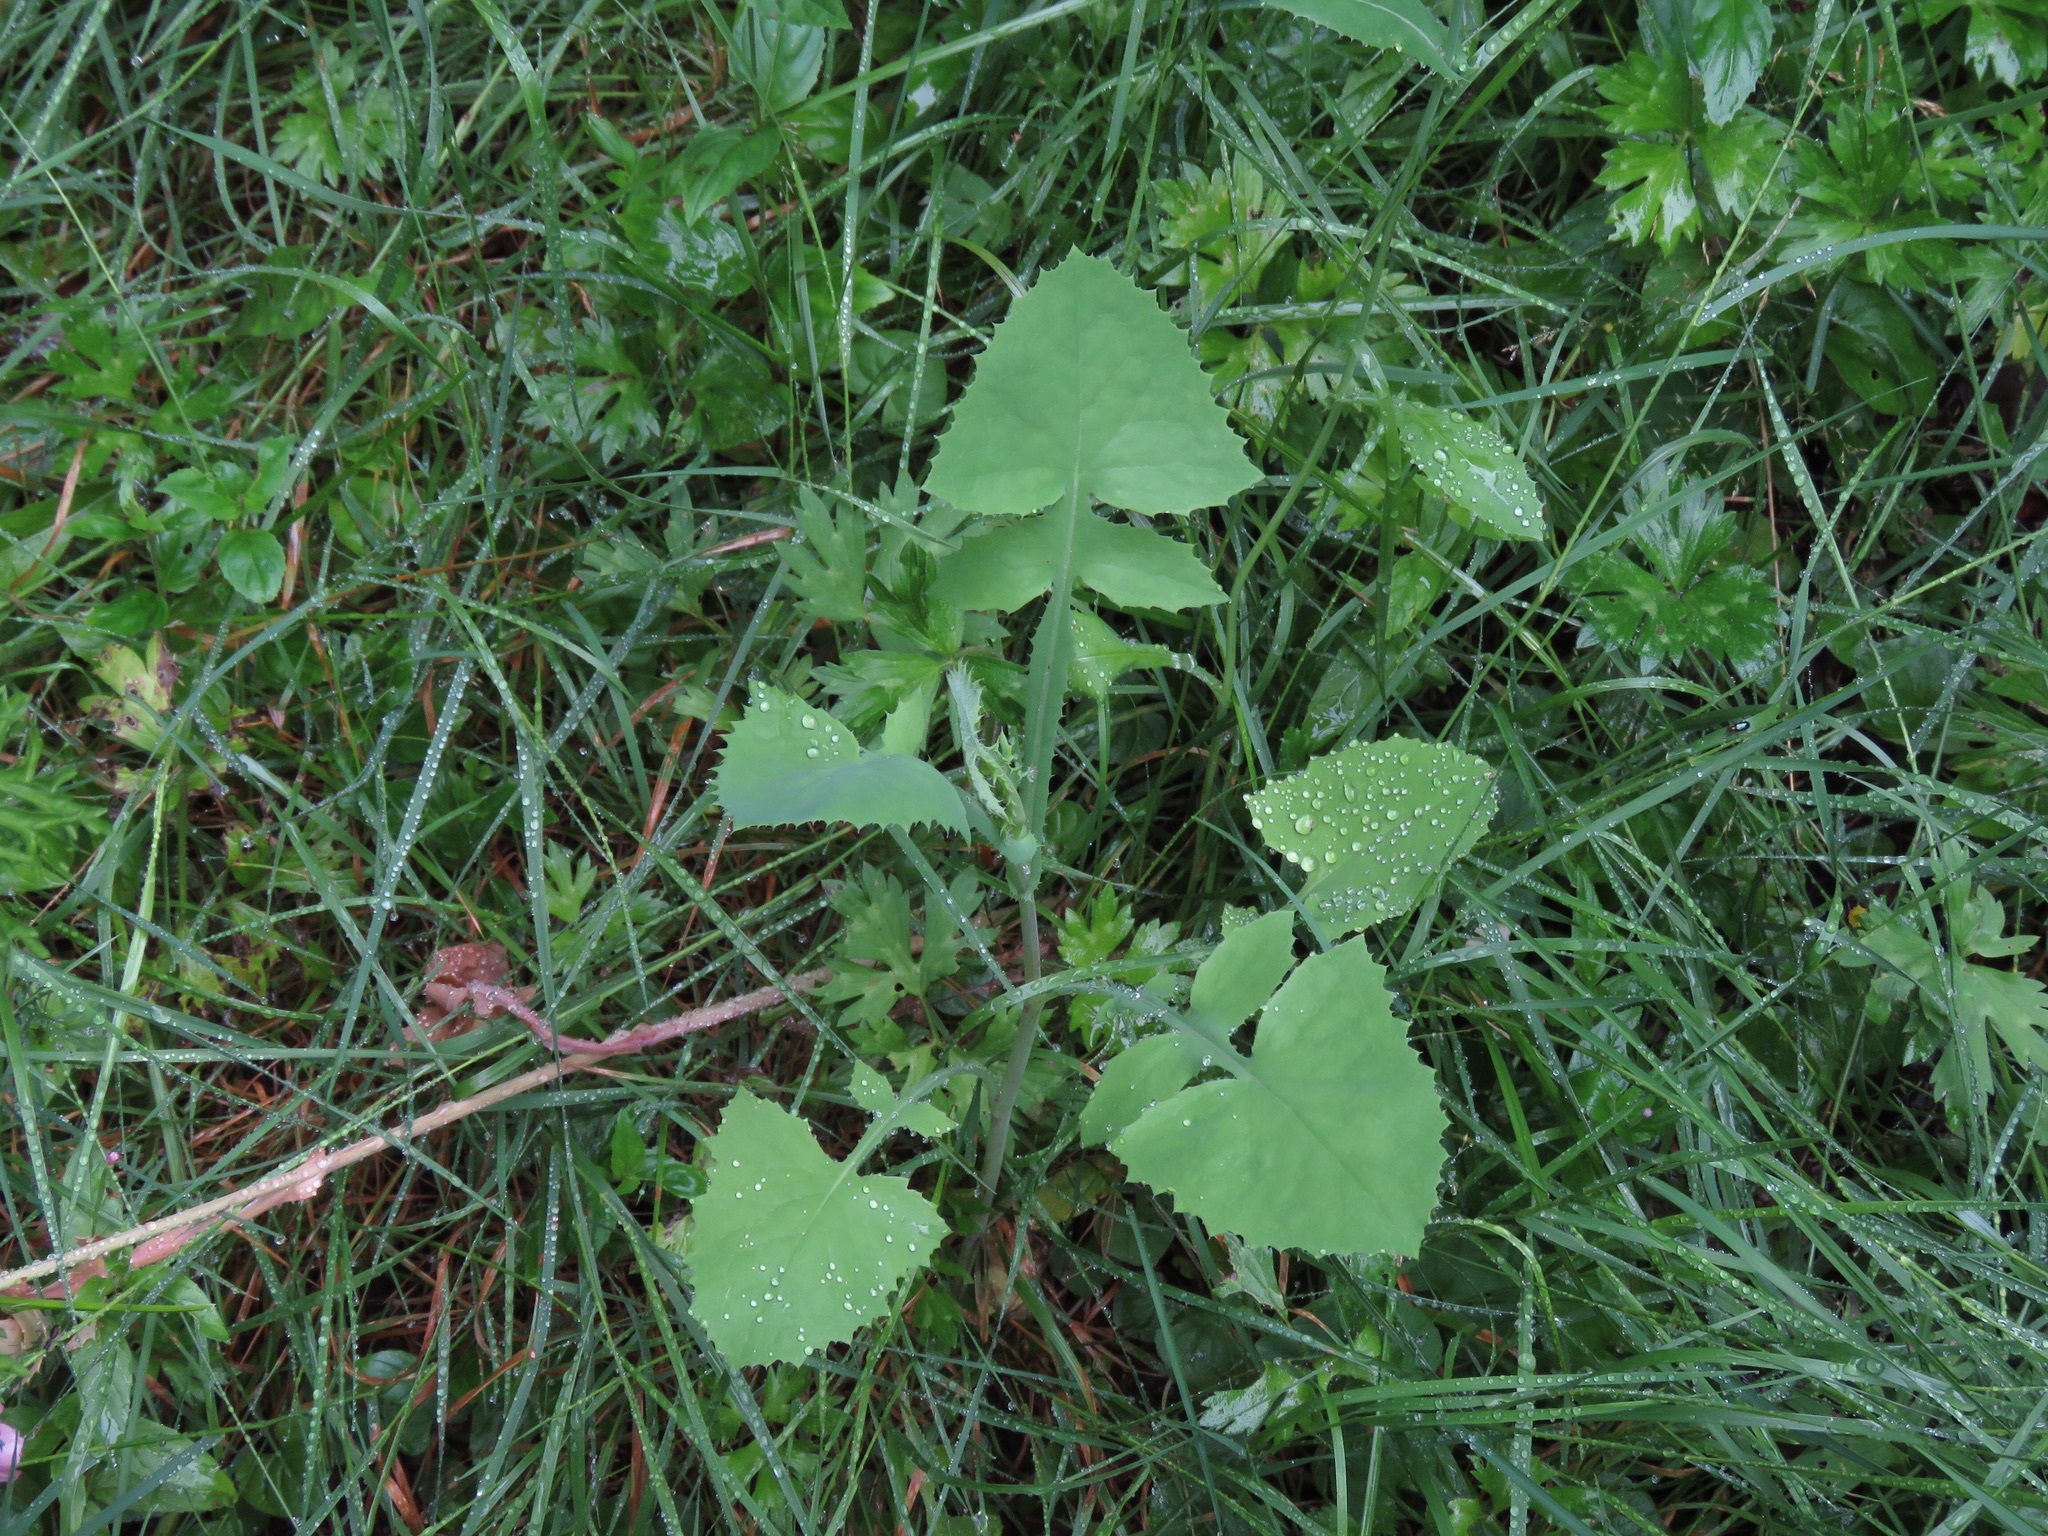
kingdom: Plantae
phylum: Tracheophyta
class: Magnoliopsida
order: Asterales
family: Asteraceae
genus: Sonchus
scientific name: Sonchus oleraceus
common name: Common sowthistle
